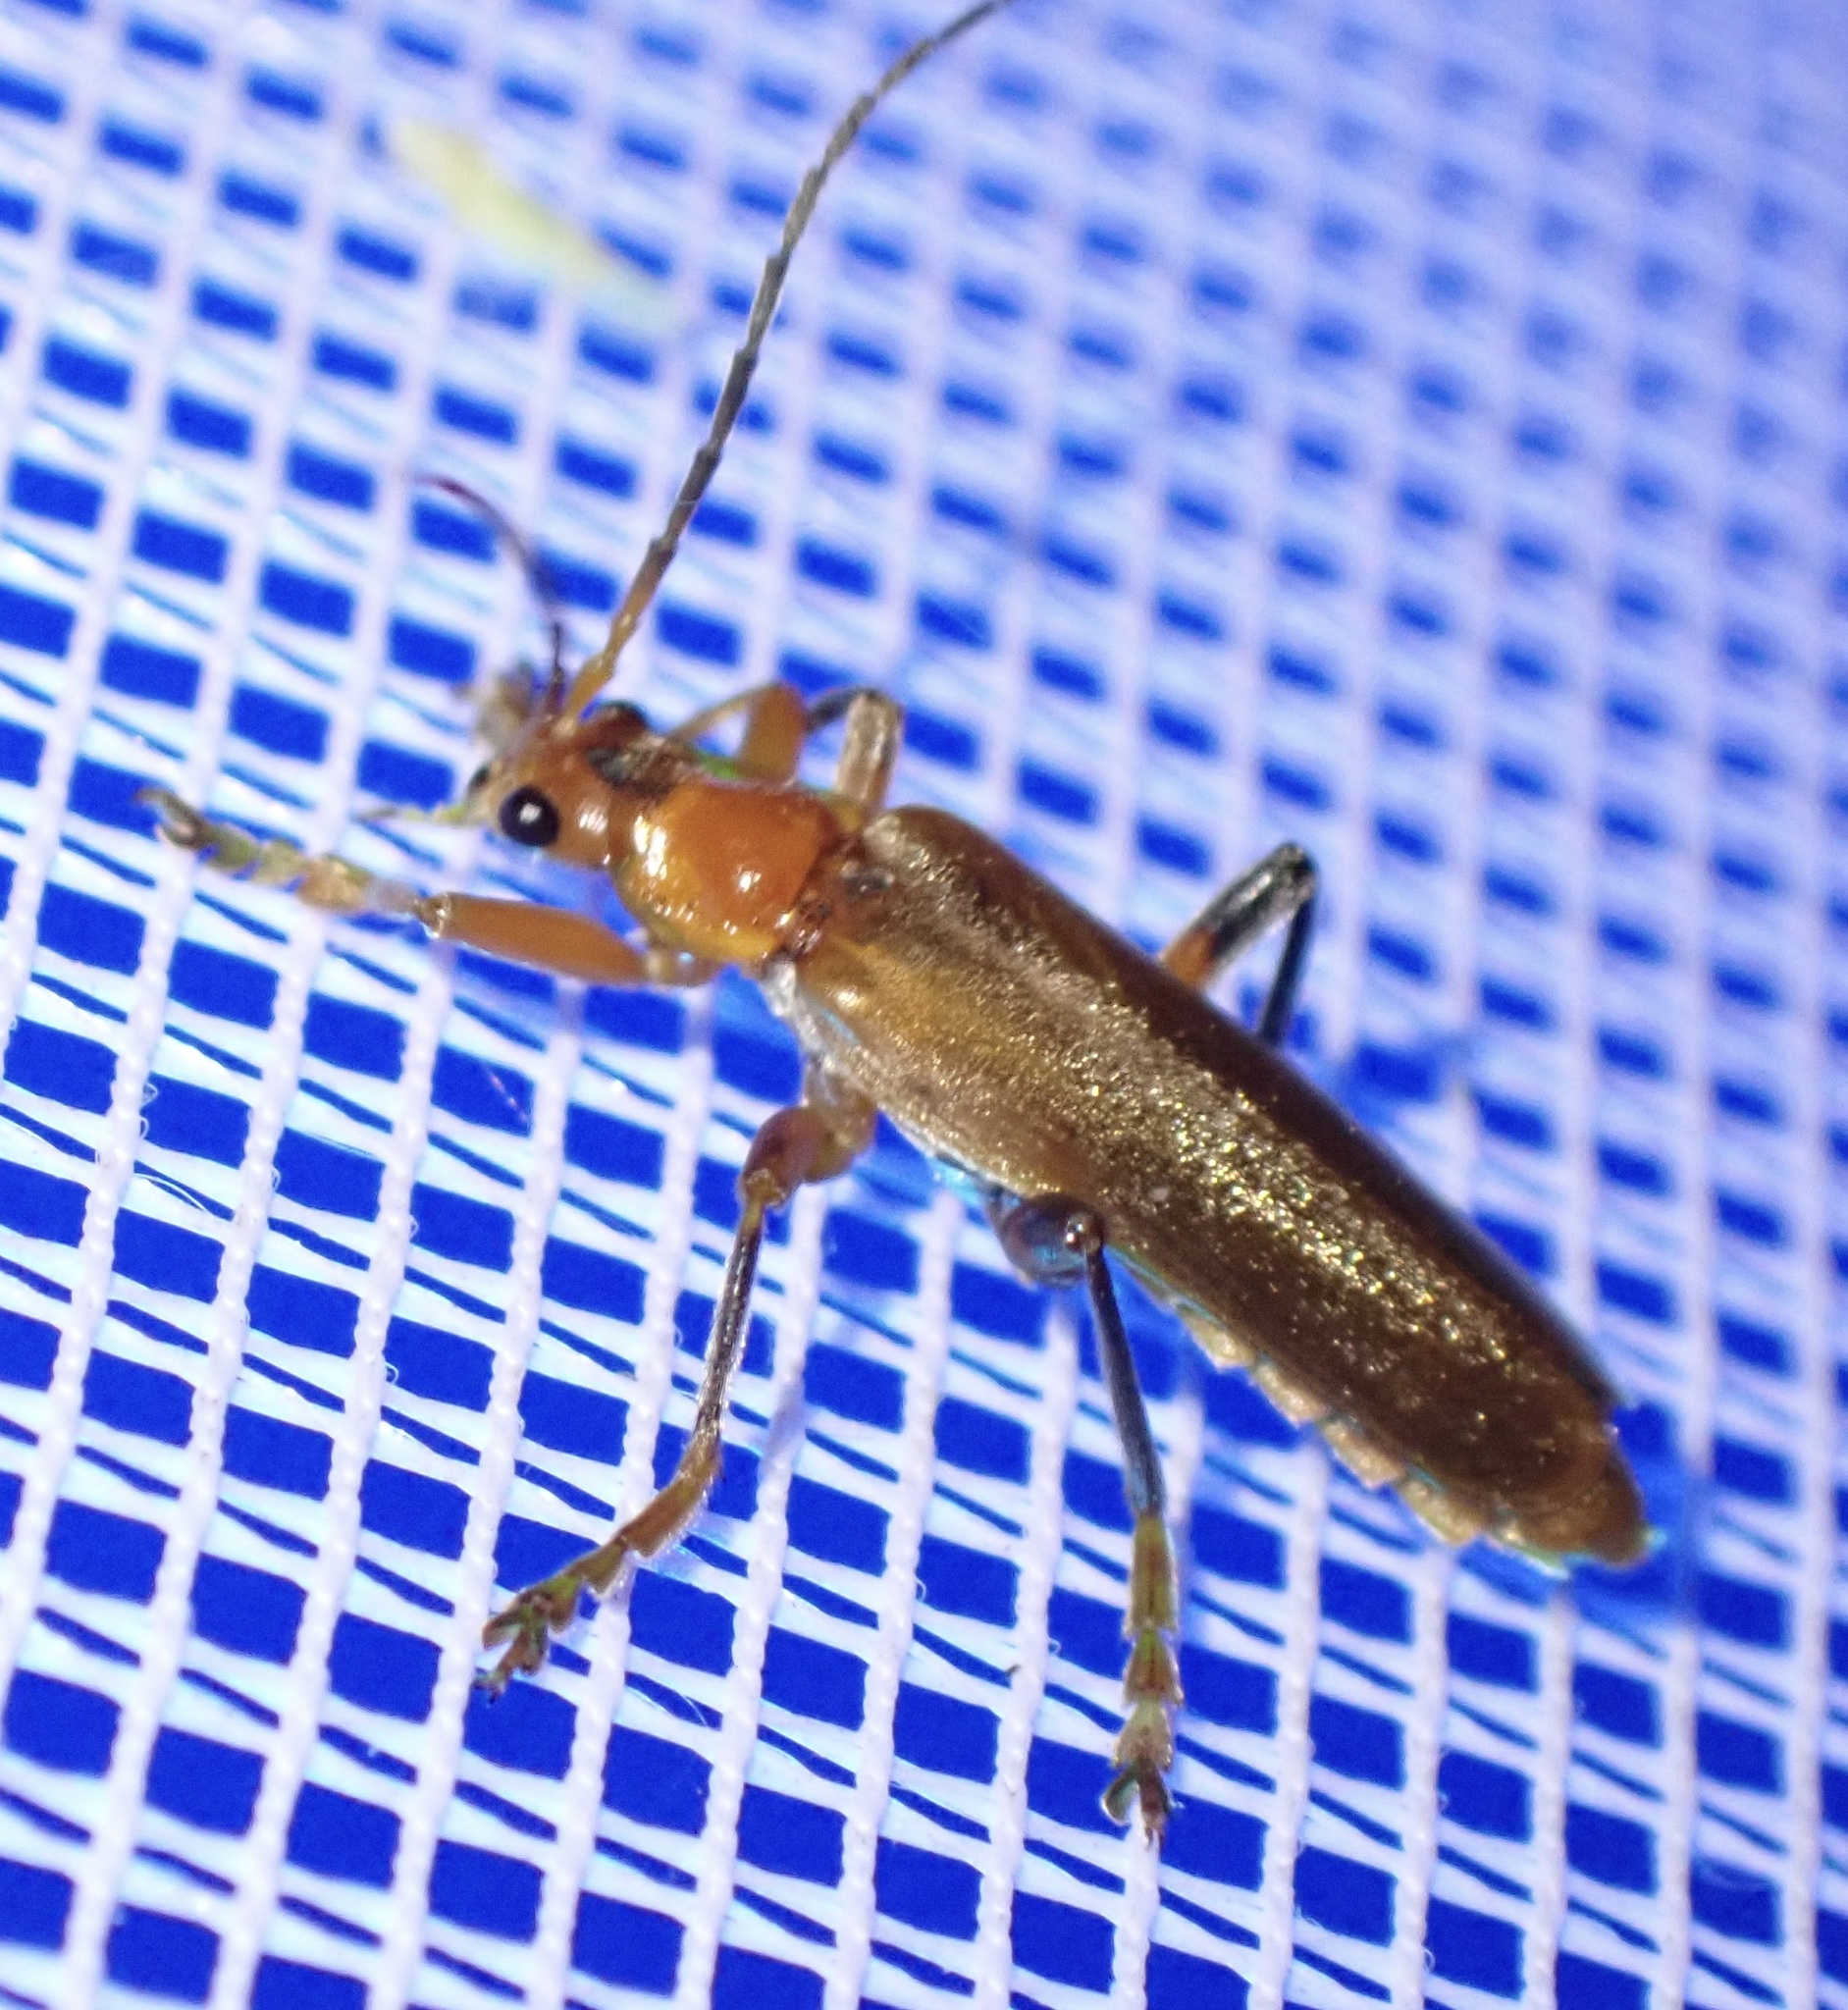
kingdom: Animalia
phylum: Arthropoda
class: Insecta
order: Coleoptera
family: Cantharidae
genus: Cantharis
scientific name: Cantharis livida
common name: Livid soldier beetle
